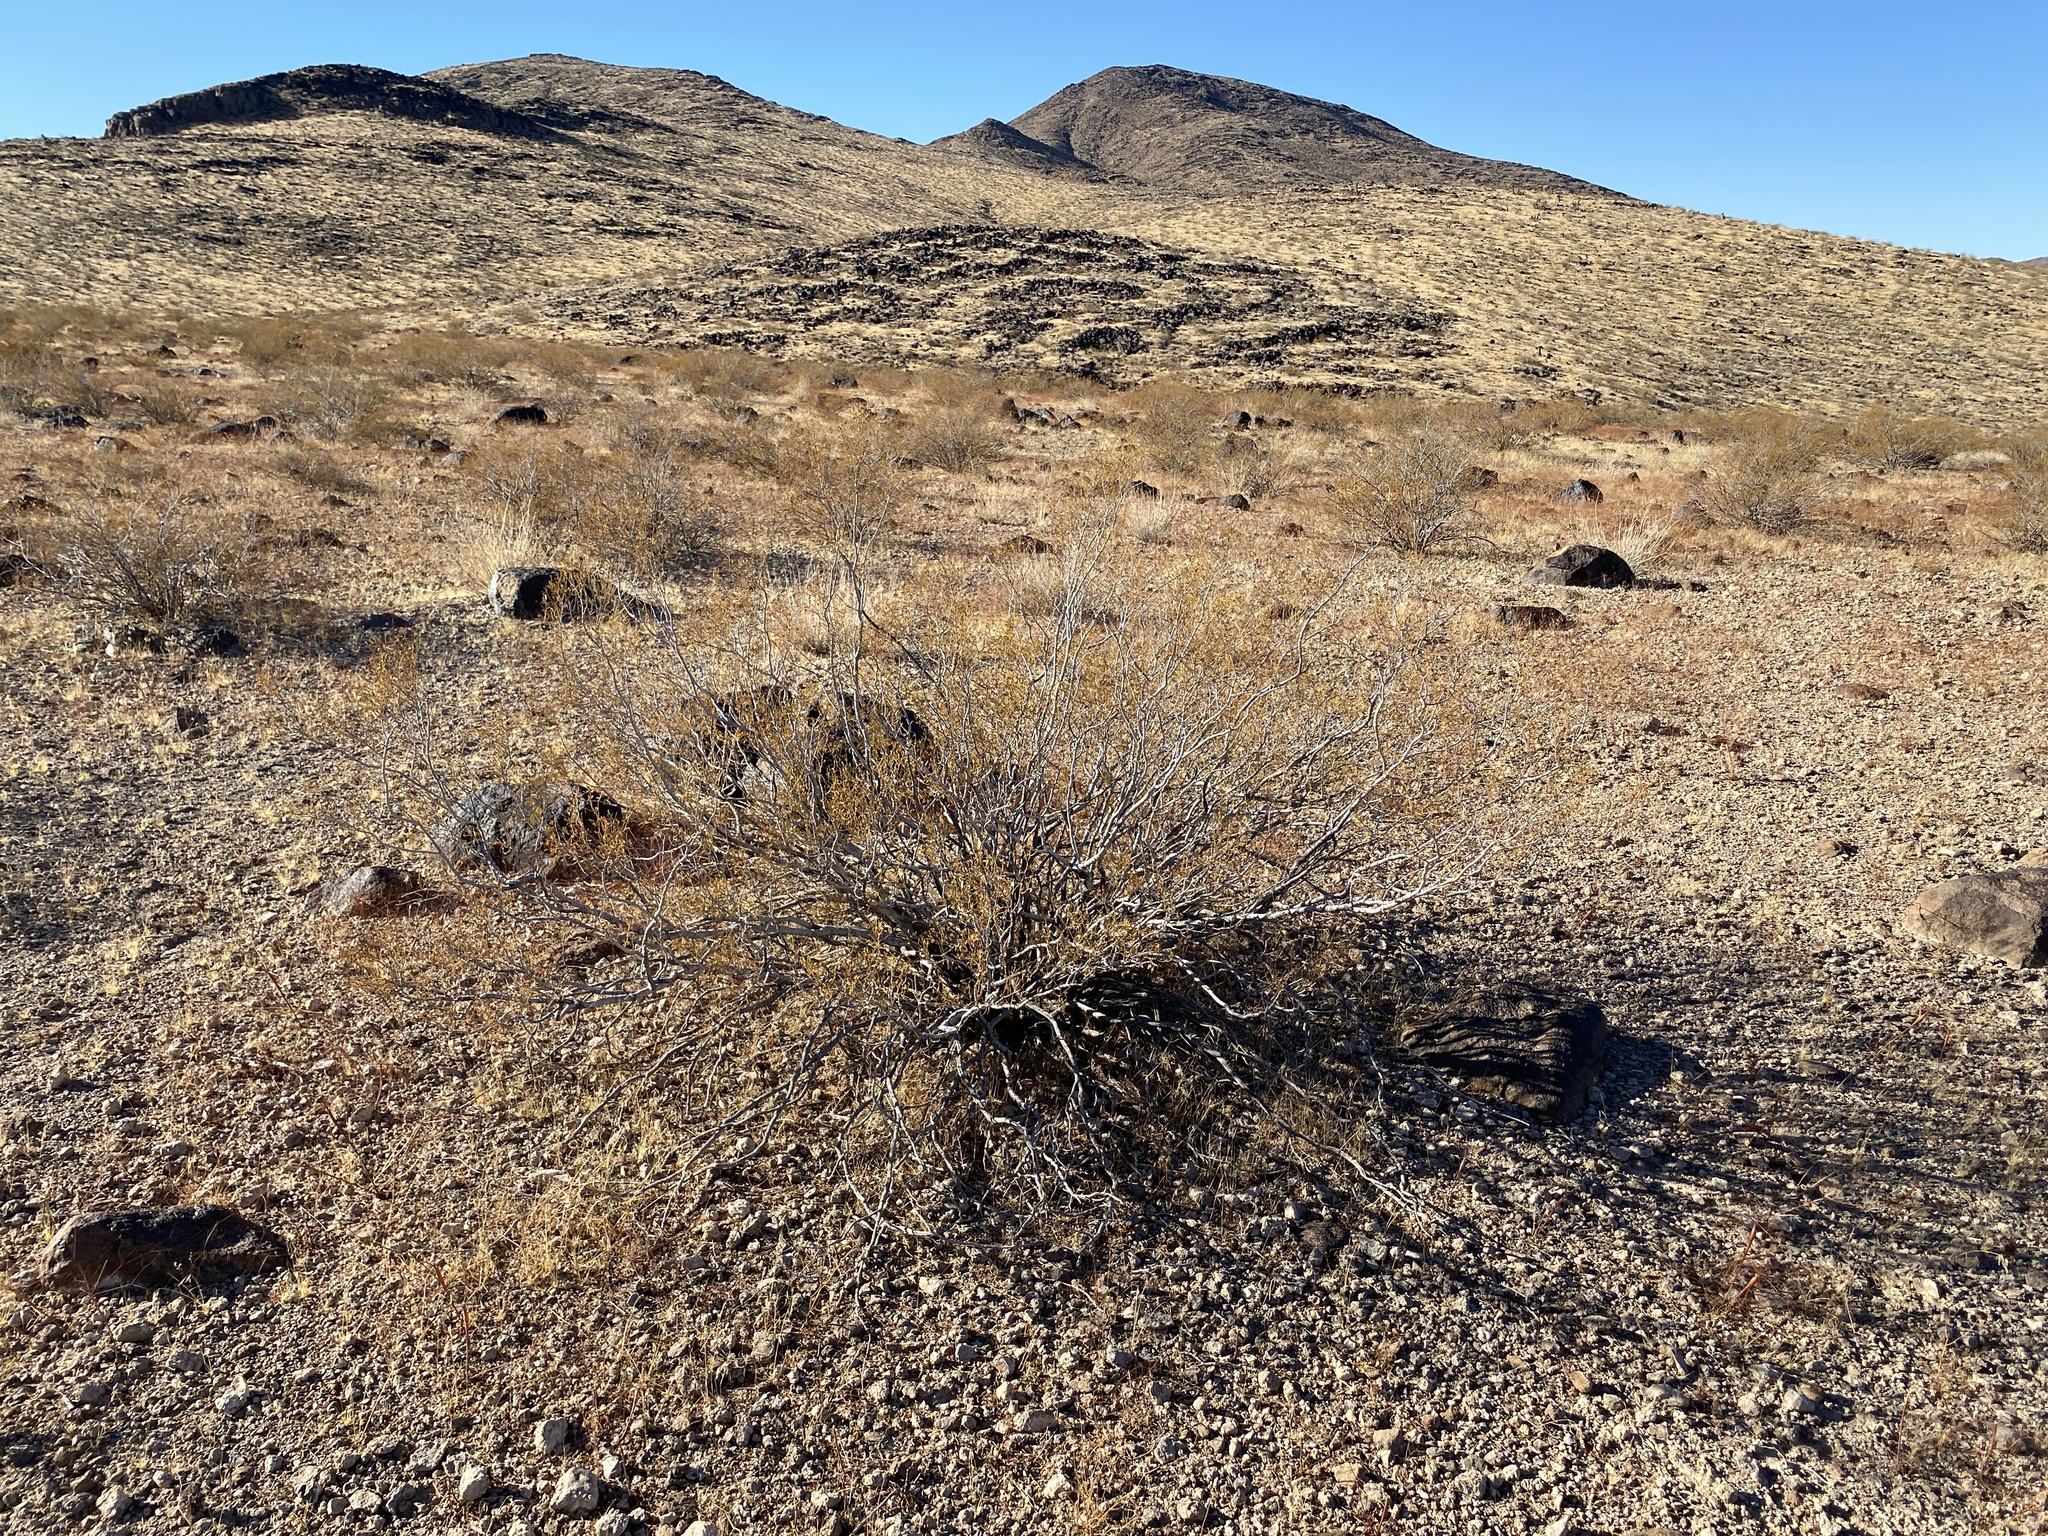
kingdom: Plantae
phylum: Tracheophyta
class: Magnoliopsida
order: Zygophyllales
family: Zygophyllaceae
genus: Larrea
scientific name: Larrea tridentata
